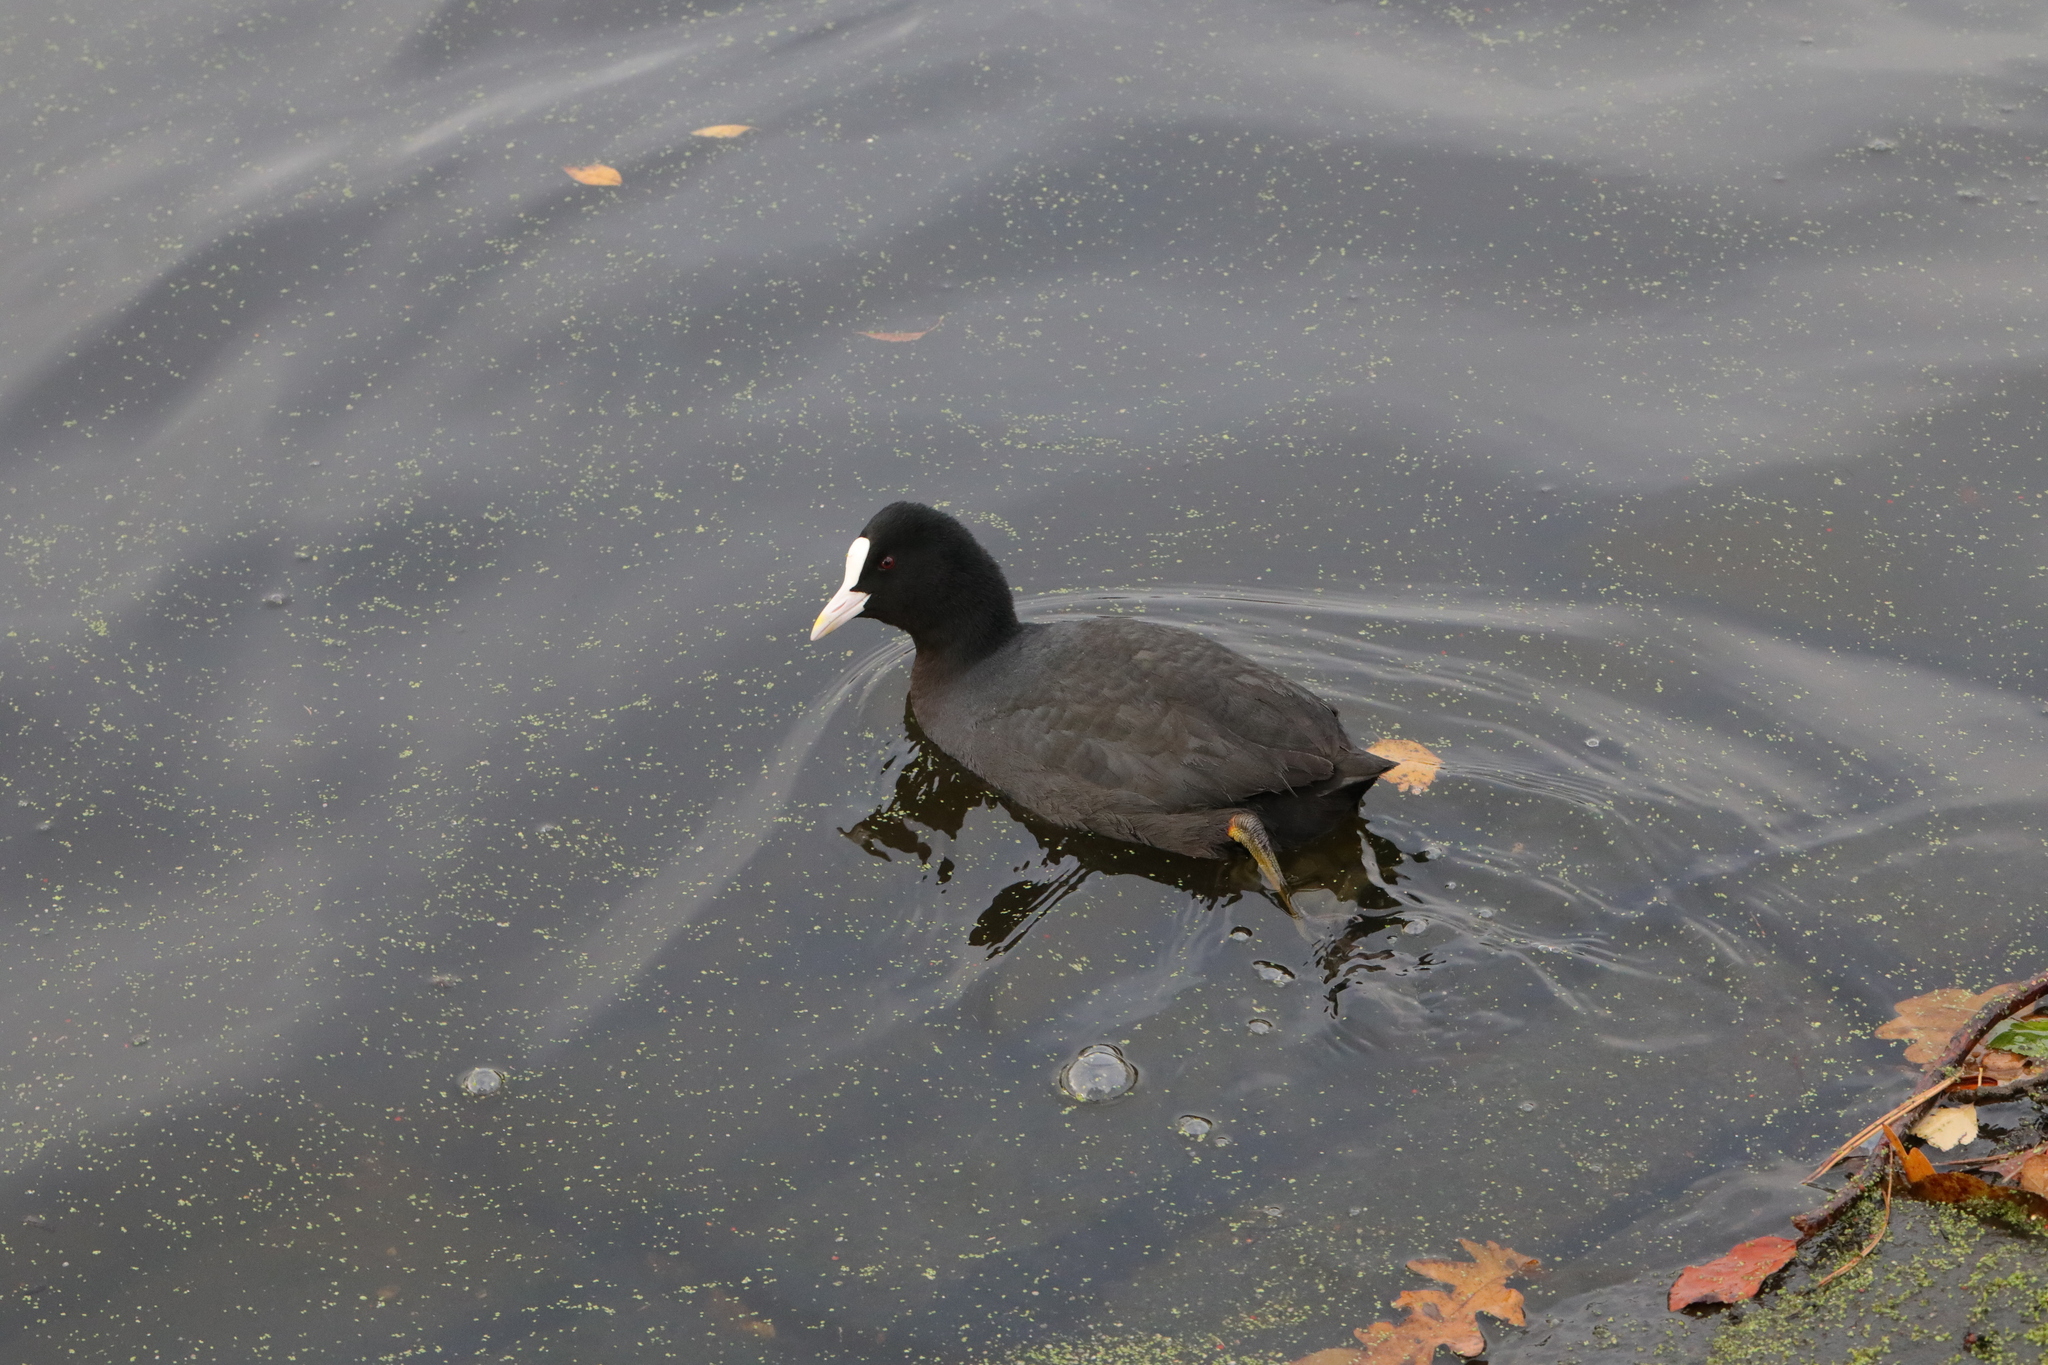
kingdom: Animalia
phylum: Chordata
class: Aves
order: Gruiformes
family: Rallidae
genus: Fulica
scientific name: Fulica atra
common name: Eurasian coot
